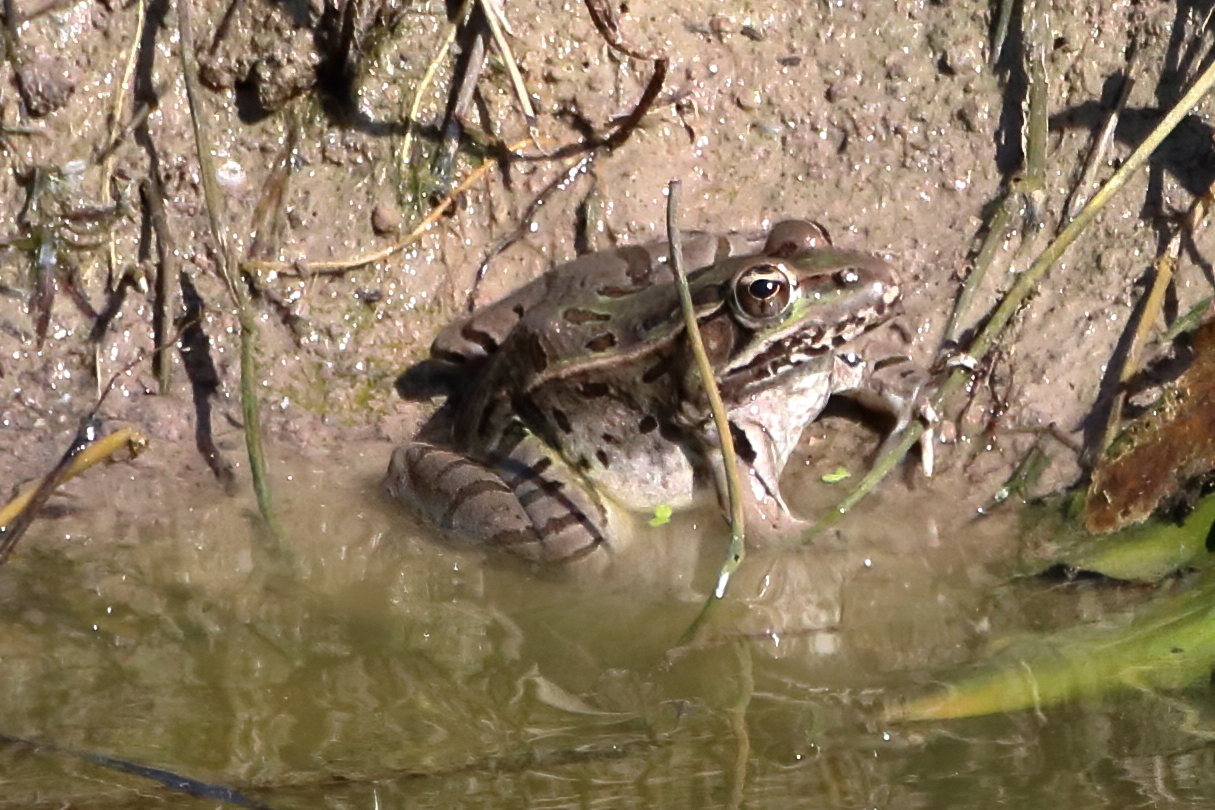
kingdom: Animalia
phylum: Chordata
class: Amphibia
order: Anura
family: Ranidae
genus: Lithobates
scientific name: Lithobates berlandieri
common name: Rio grande leopard frog
